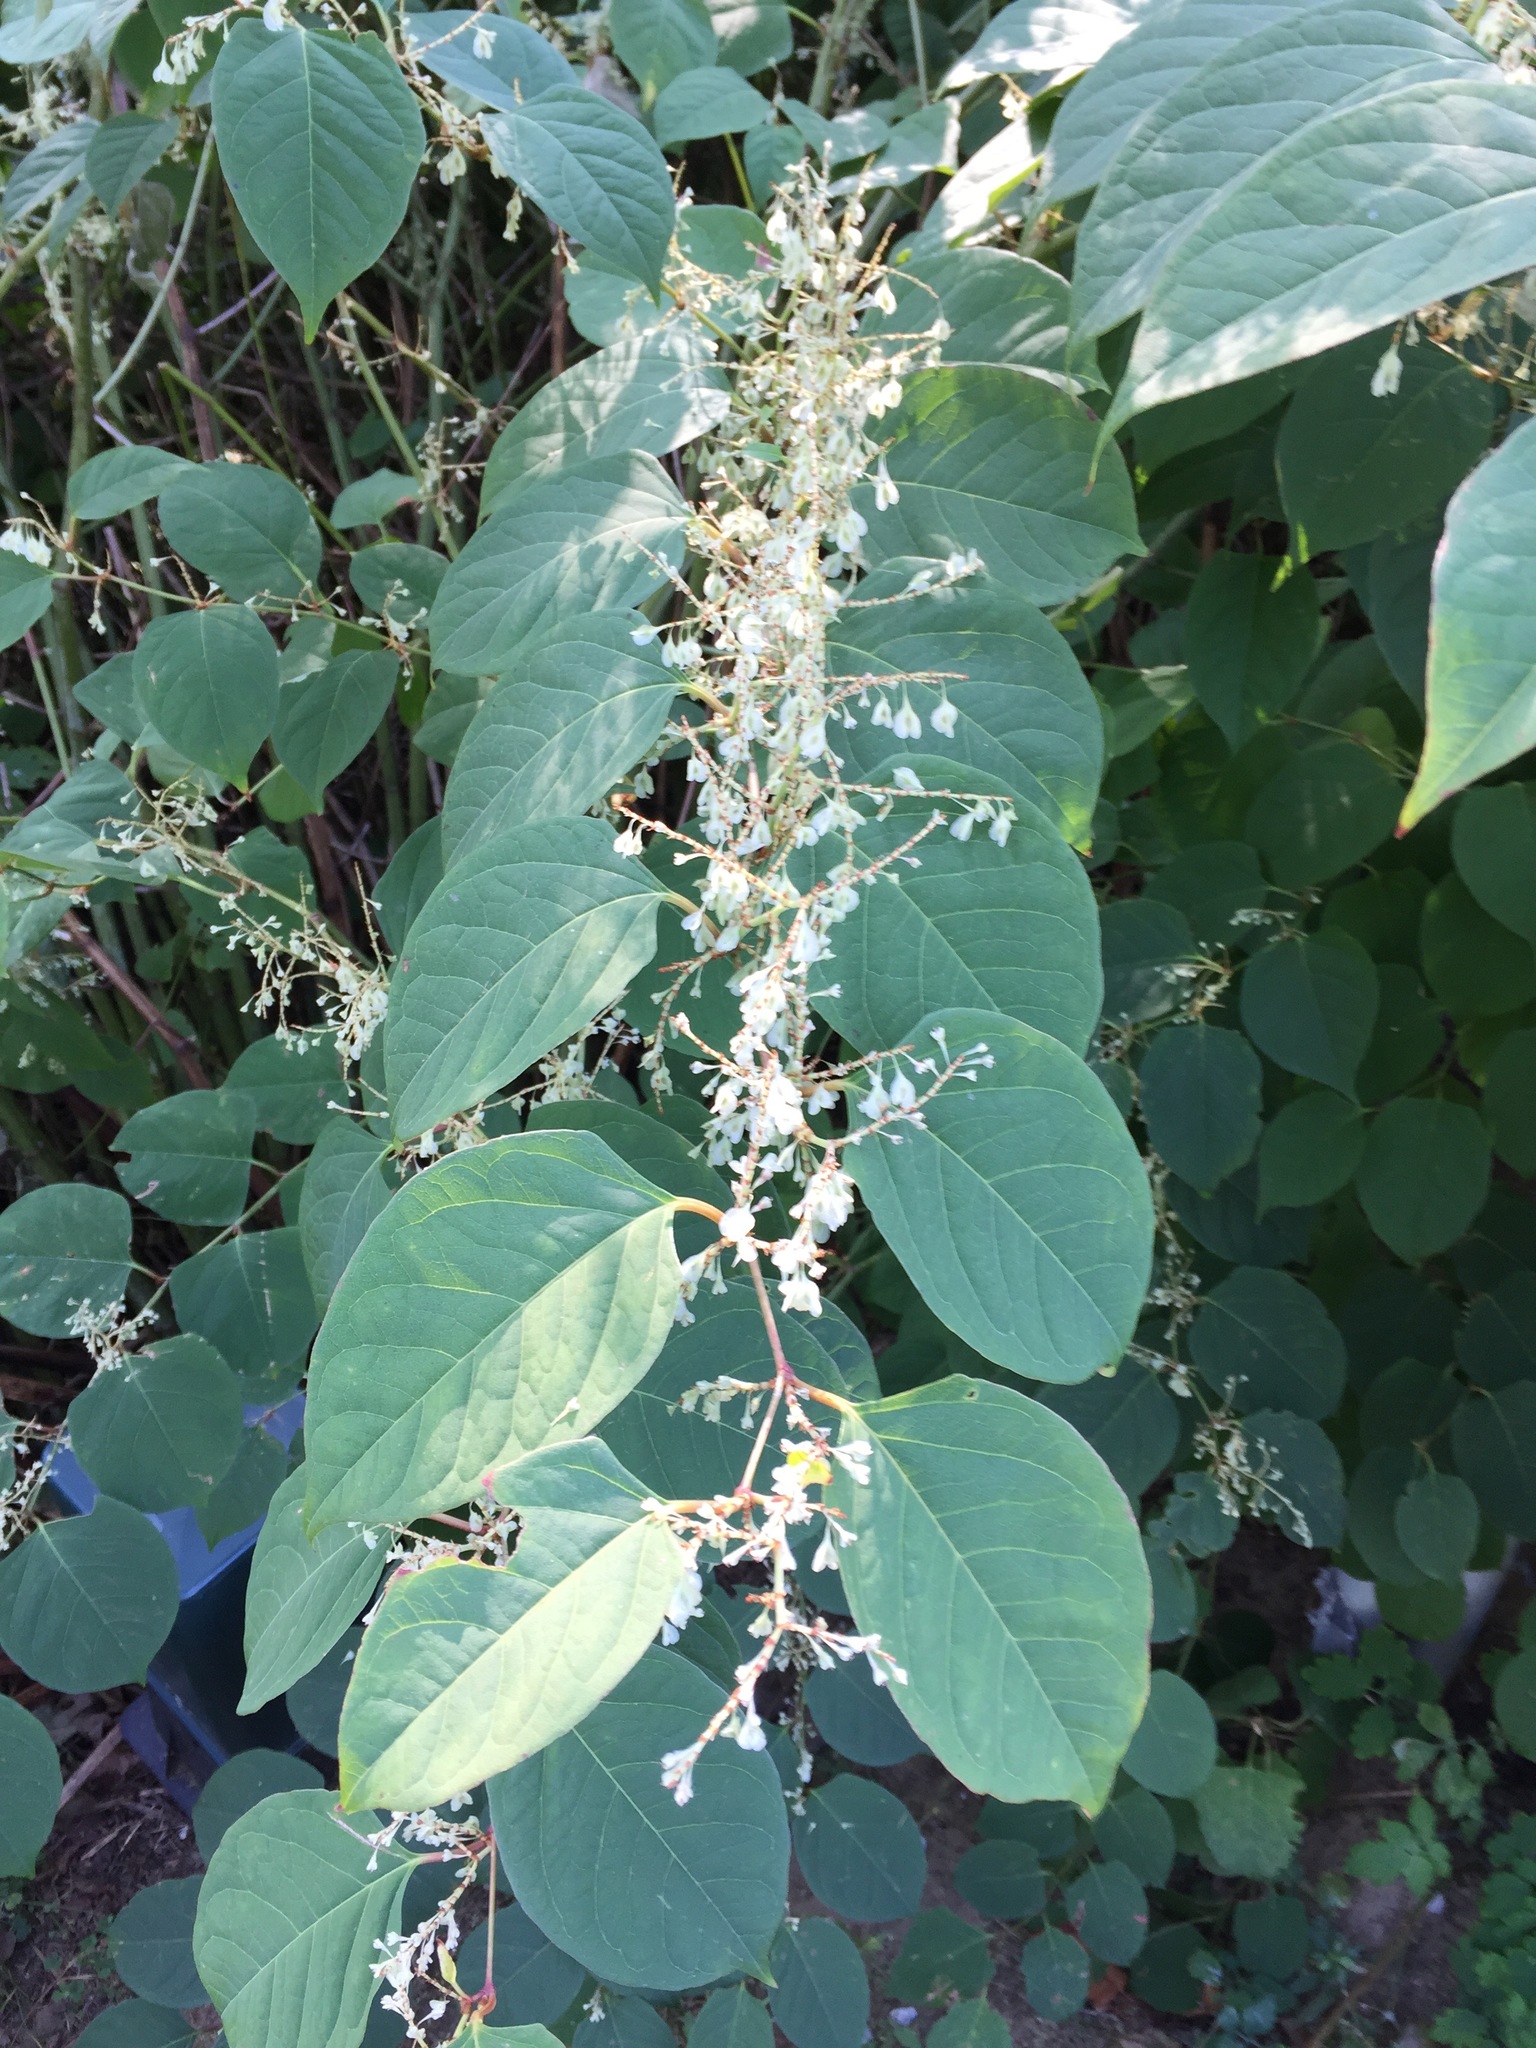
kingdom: Plantae
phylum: Tracheophyta
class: Magnoliopsida
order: Caryophyllales
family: Polygonaceae
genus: Reynoutria
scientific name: Reynoutria japonica
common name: Japanese knotweed
